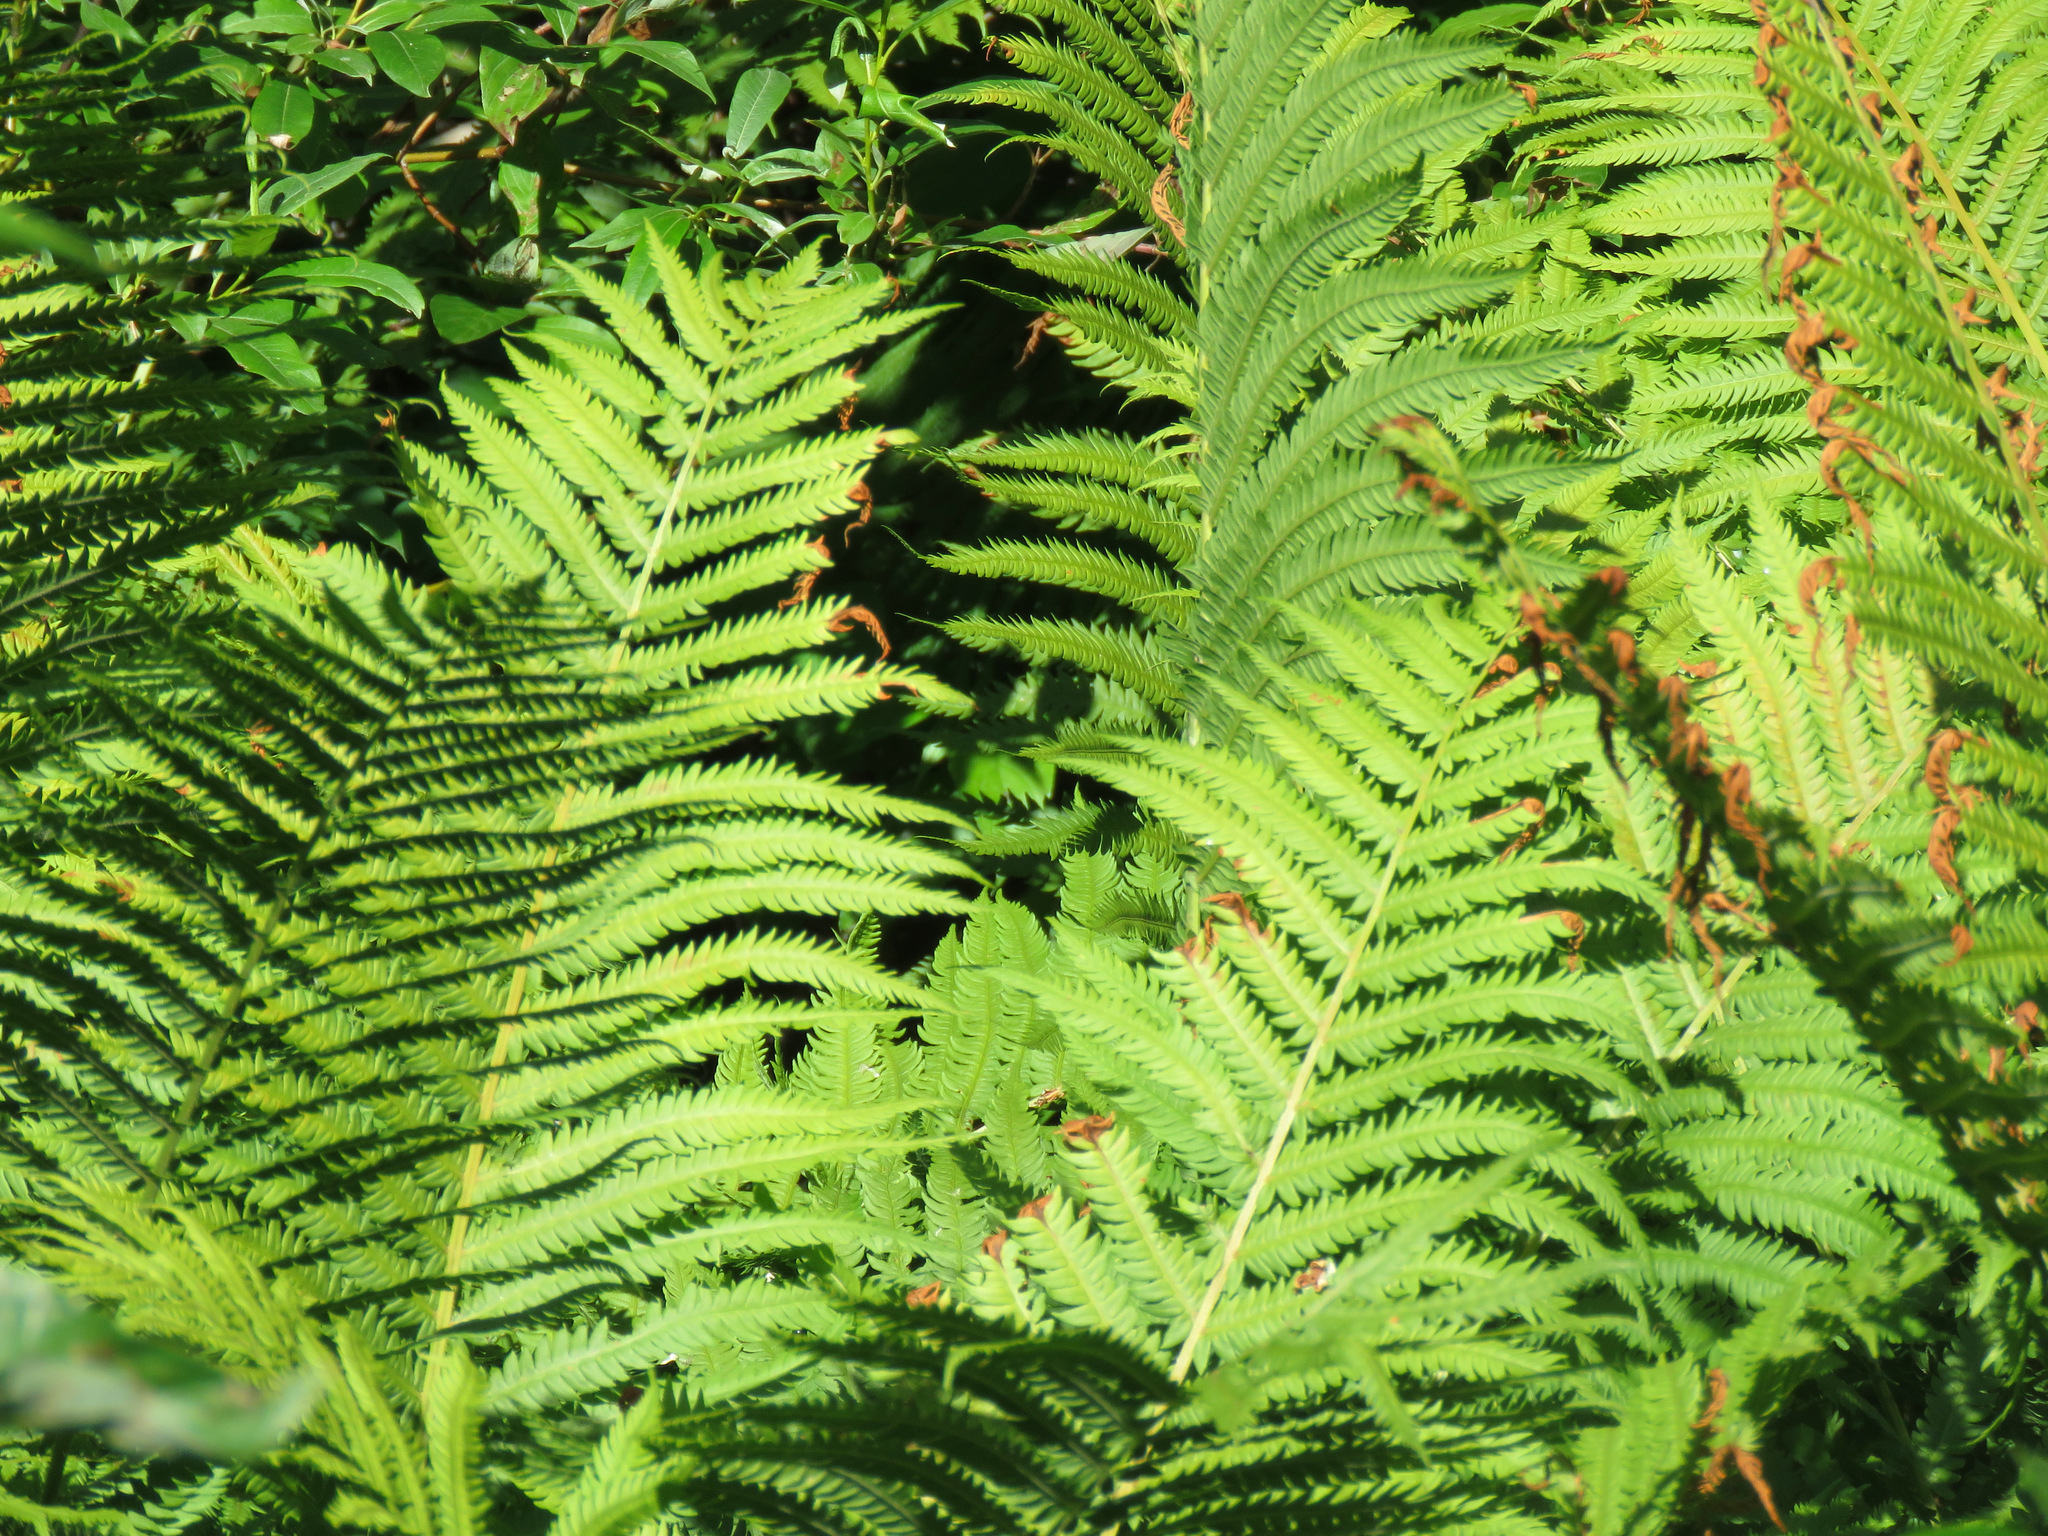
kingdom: Plantae
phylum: Tracheophyta
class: Polypodiopsida
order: Polypodiales
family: Onocleaceae
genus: Matteuccia
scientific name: Matteuccia struthiopteris
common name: Ostrich fern
